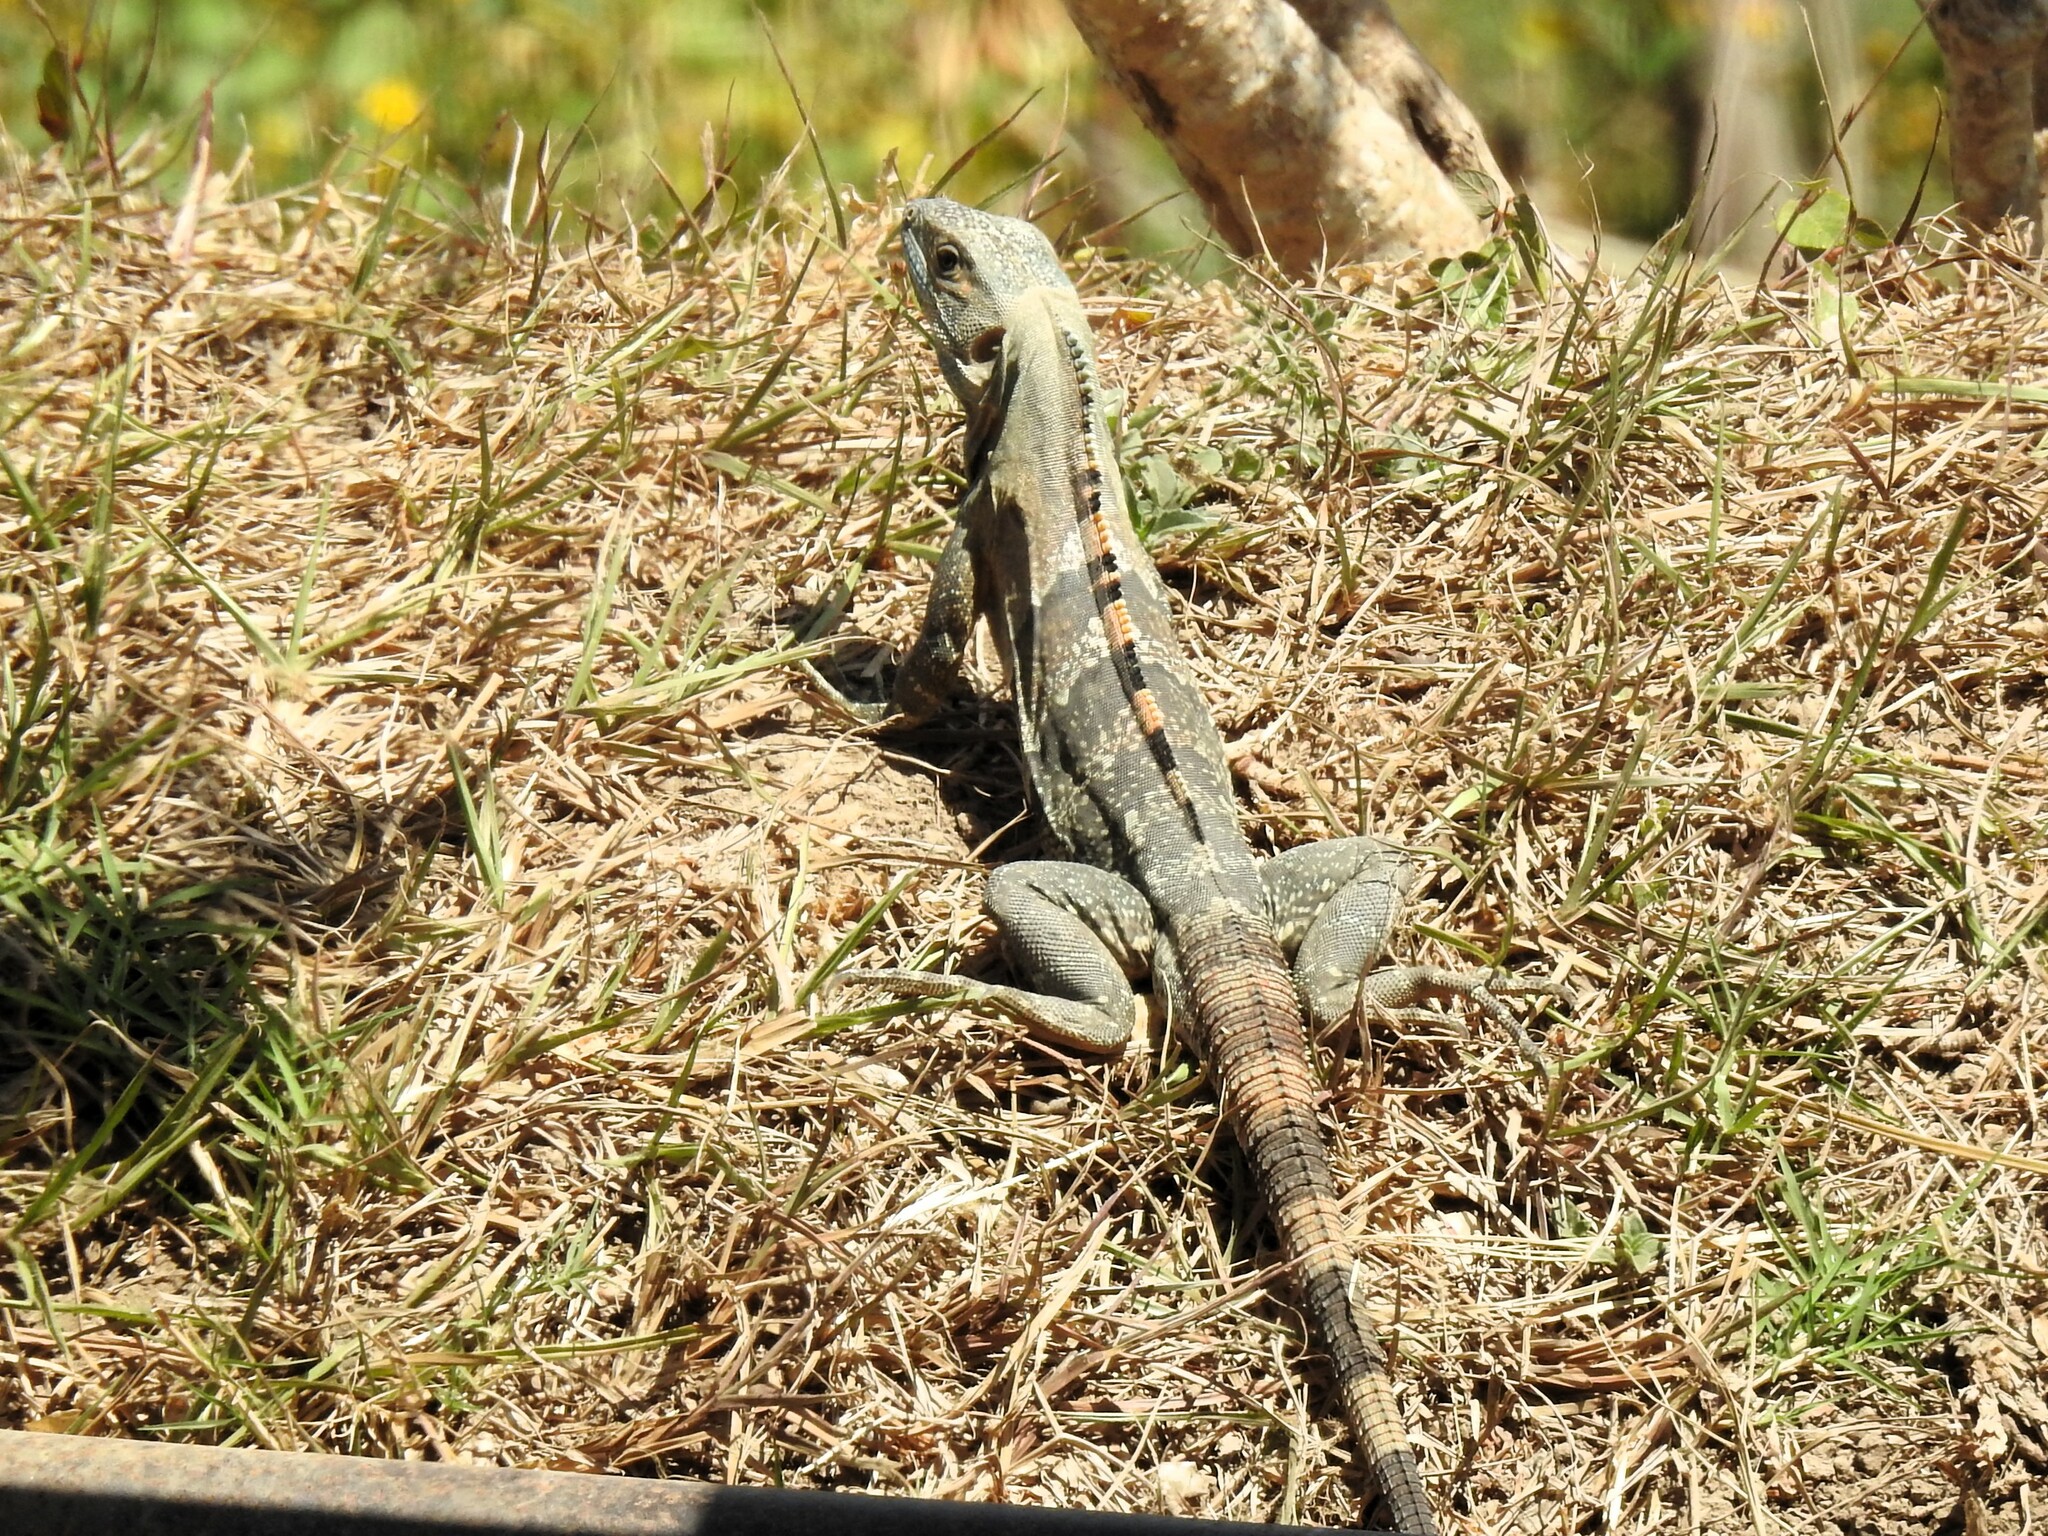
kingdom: Animalia
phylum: Chordata
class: Squamata
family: Iguanidae
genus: Ctenosaura
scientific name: Ctenosaura similis
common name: Black spiny-tailed iguana
